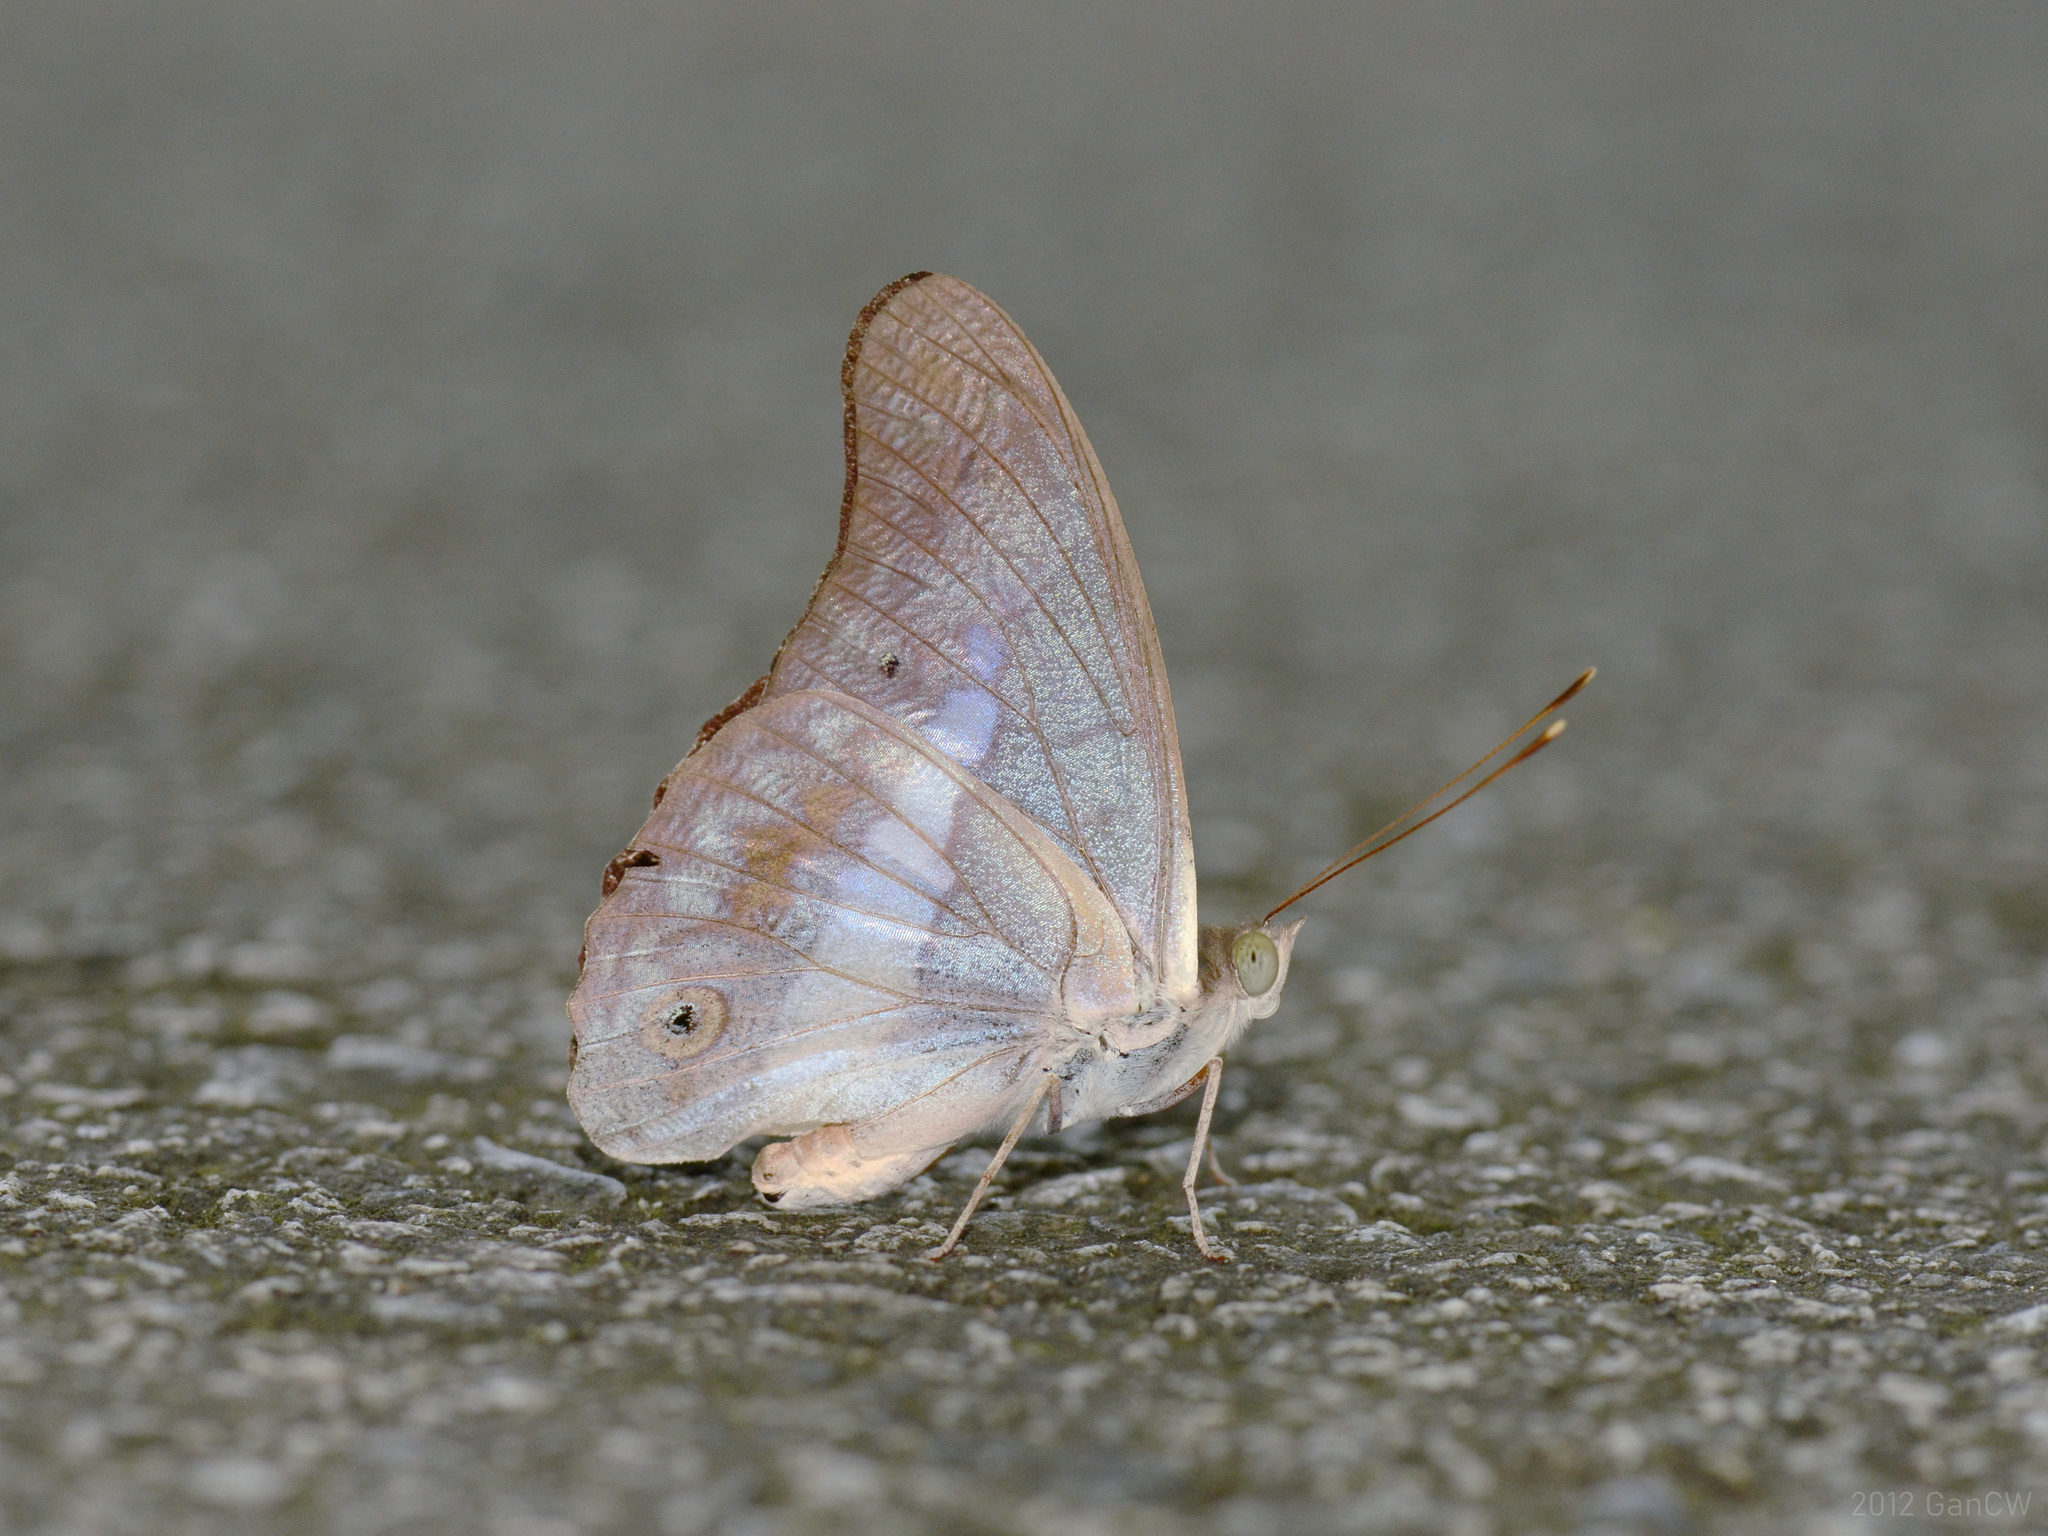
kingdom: Animalia
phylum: Arthropoda
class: Insecta
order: Lepidoptera
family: Nymphalidae
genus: Eulaceura
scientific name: Eulaceura osteria
